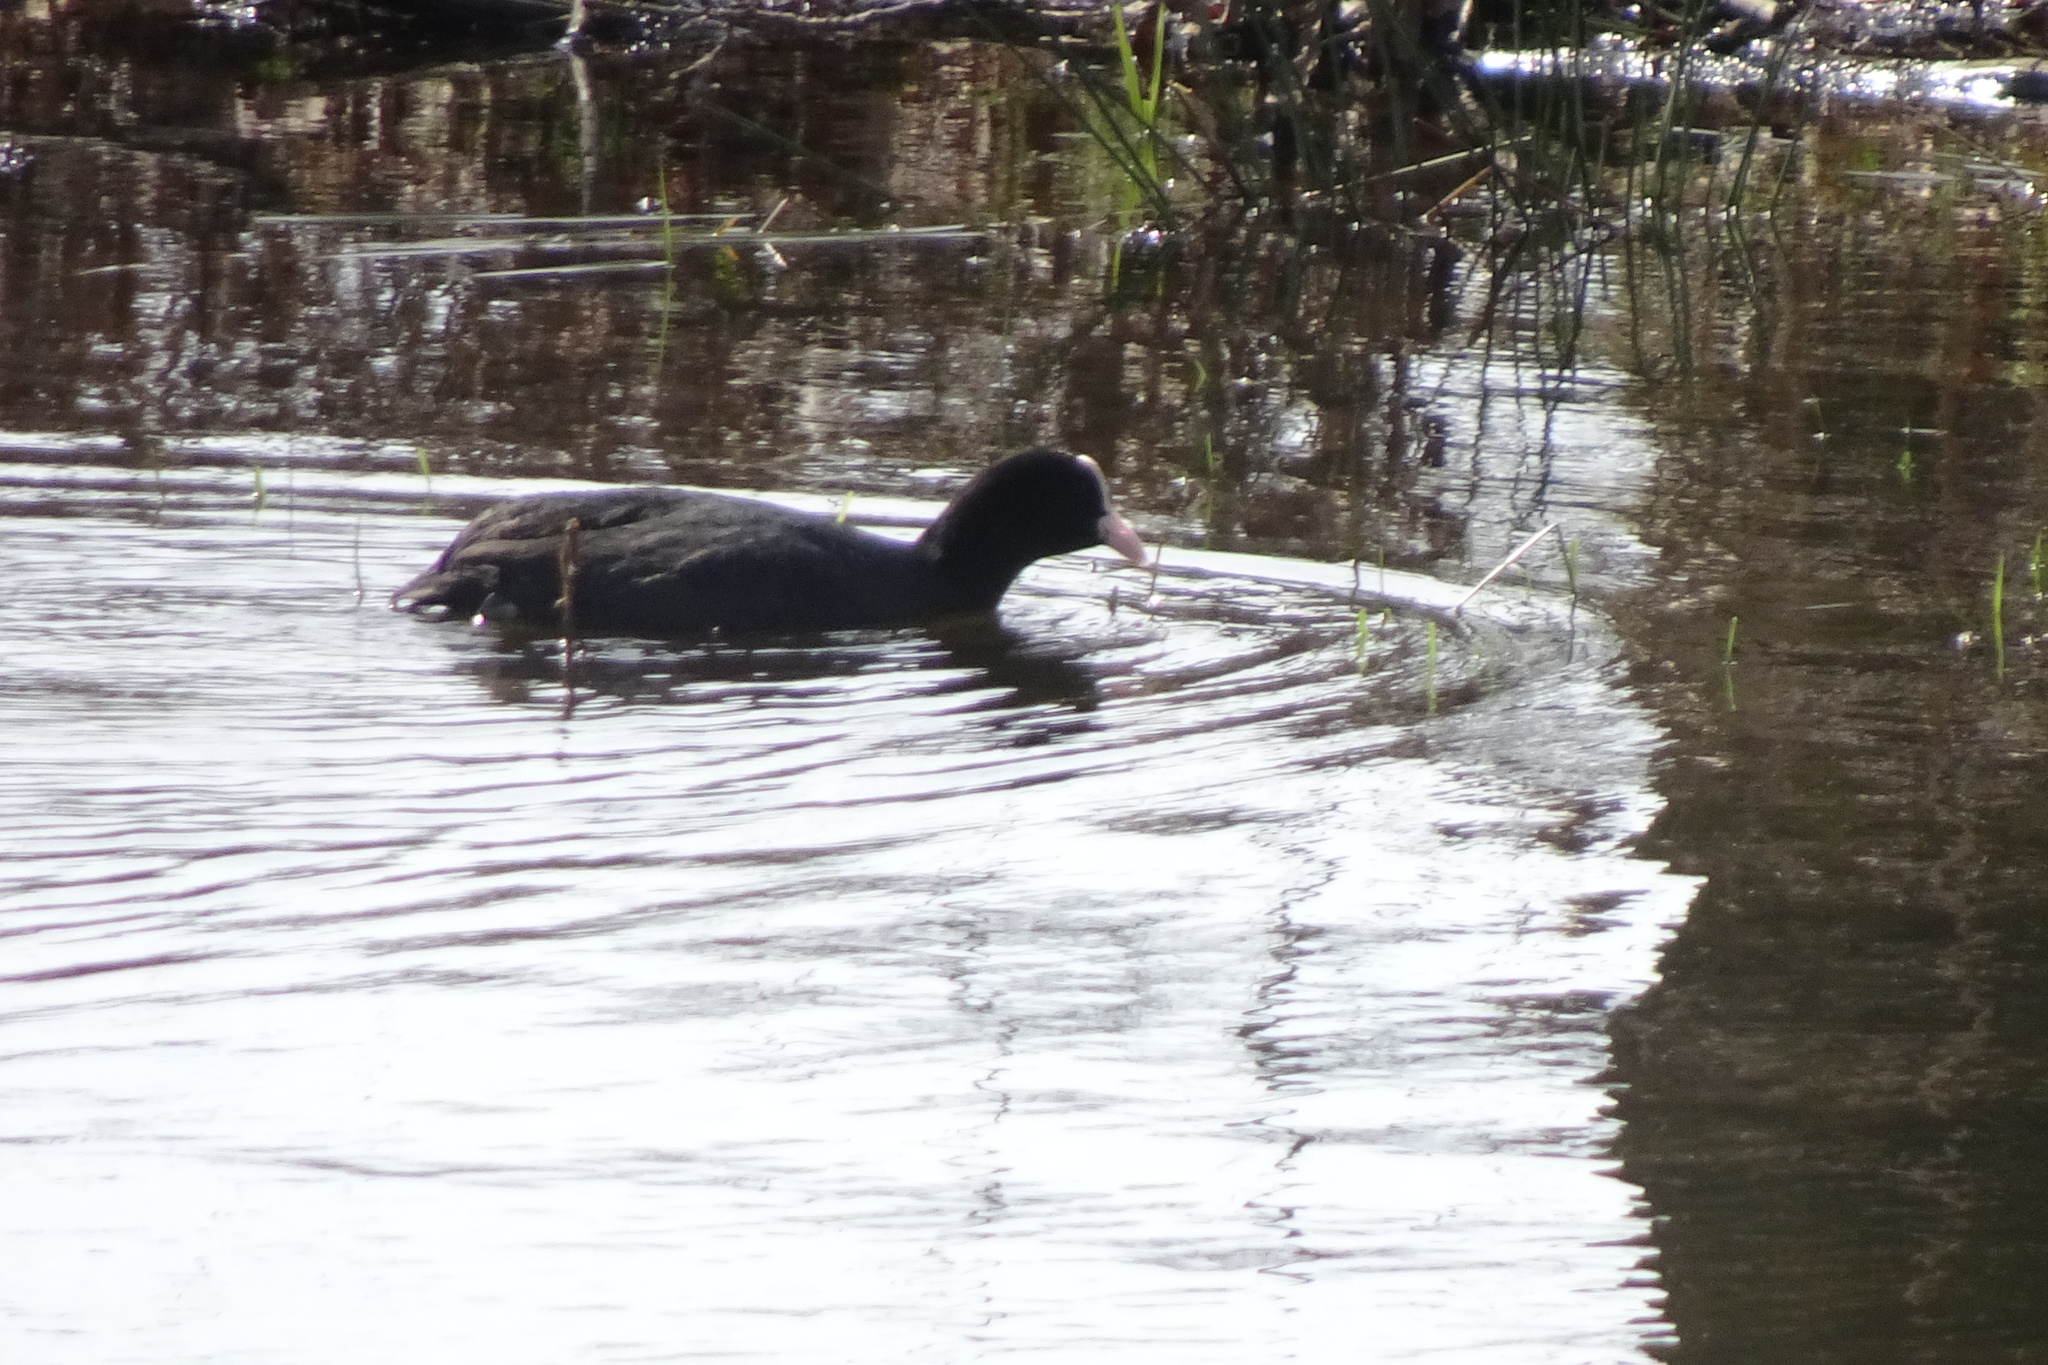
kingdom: Animalia
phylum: Chordata
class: Aves
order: Gruiformes
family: Rallidae
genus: Fulica
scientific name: Fulica atra
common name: Eurasian coot
